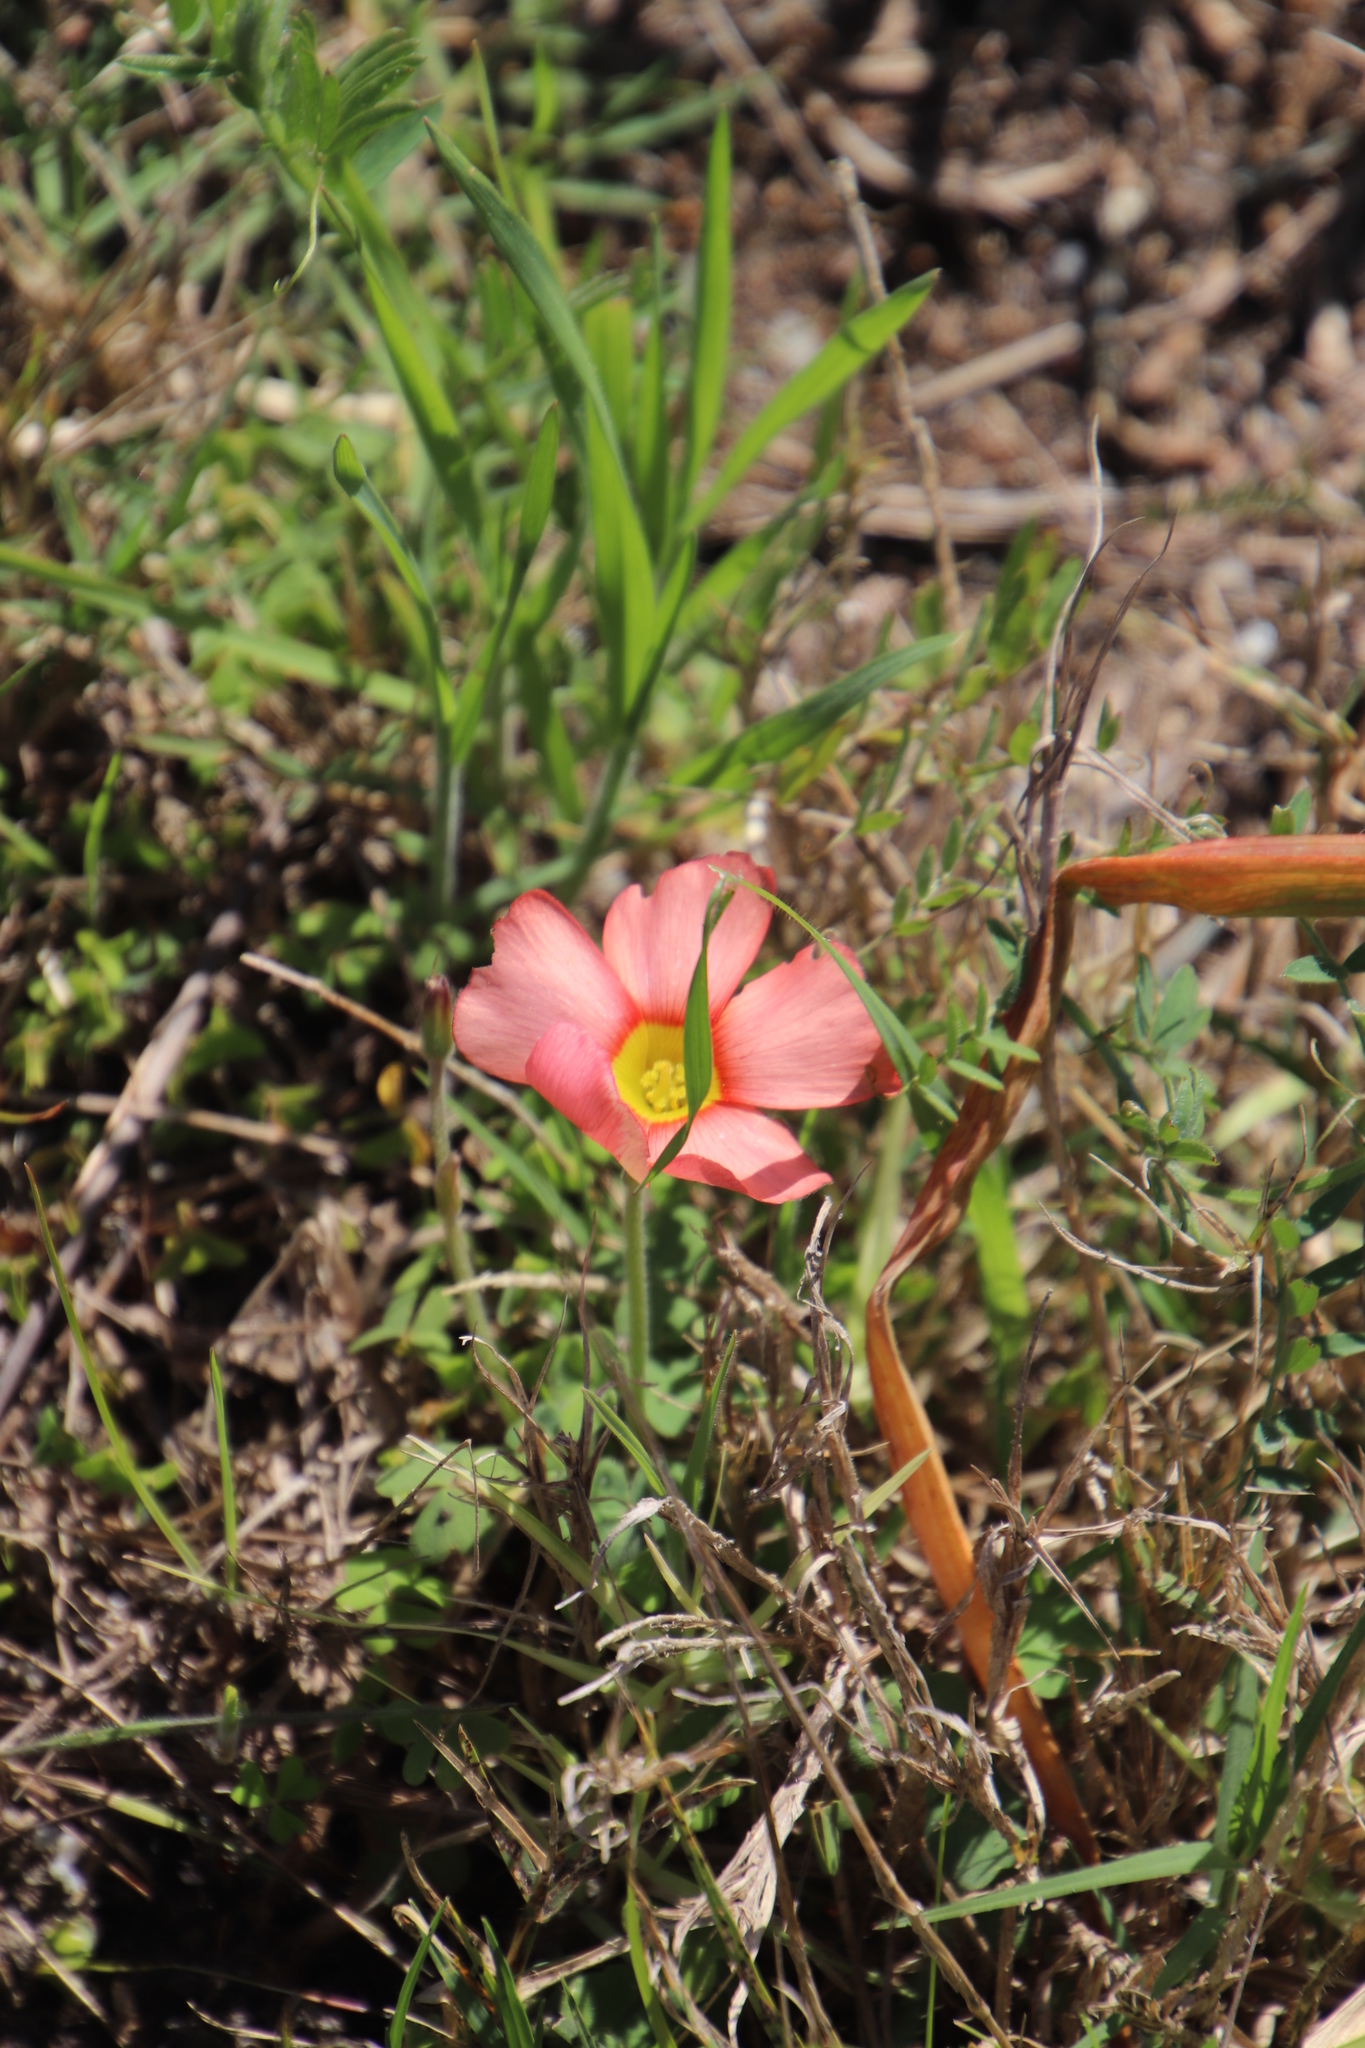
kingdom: Plantae
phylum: Tracheophyta
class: Magnoliopsida
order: Oxalidales
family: Oxalidaceae
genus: Oxalis
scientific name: Oxalis obtusa
